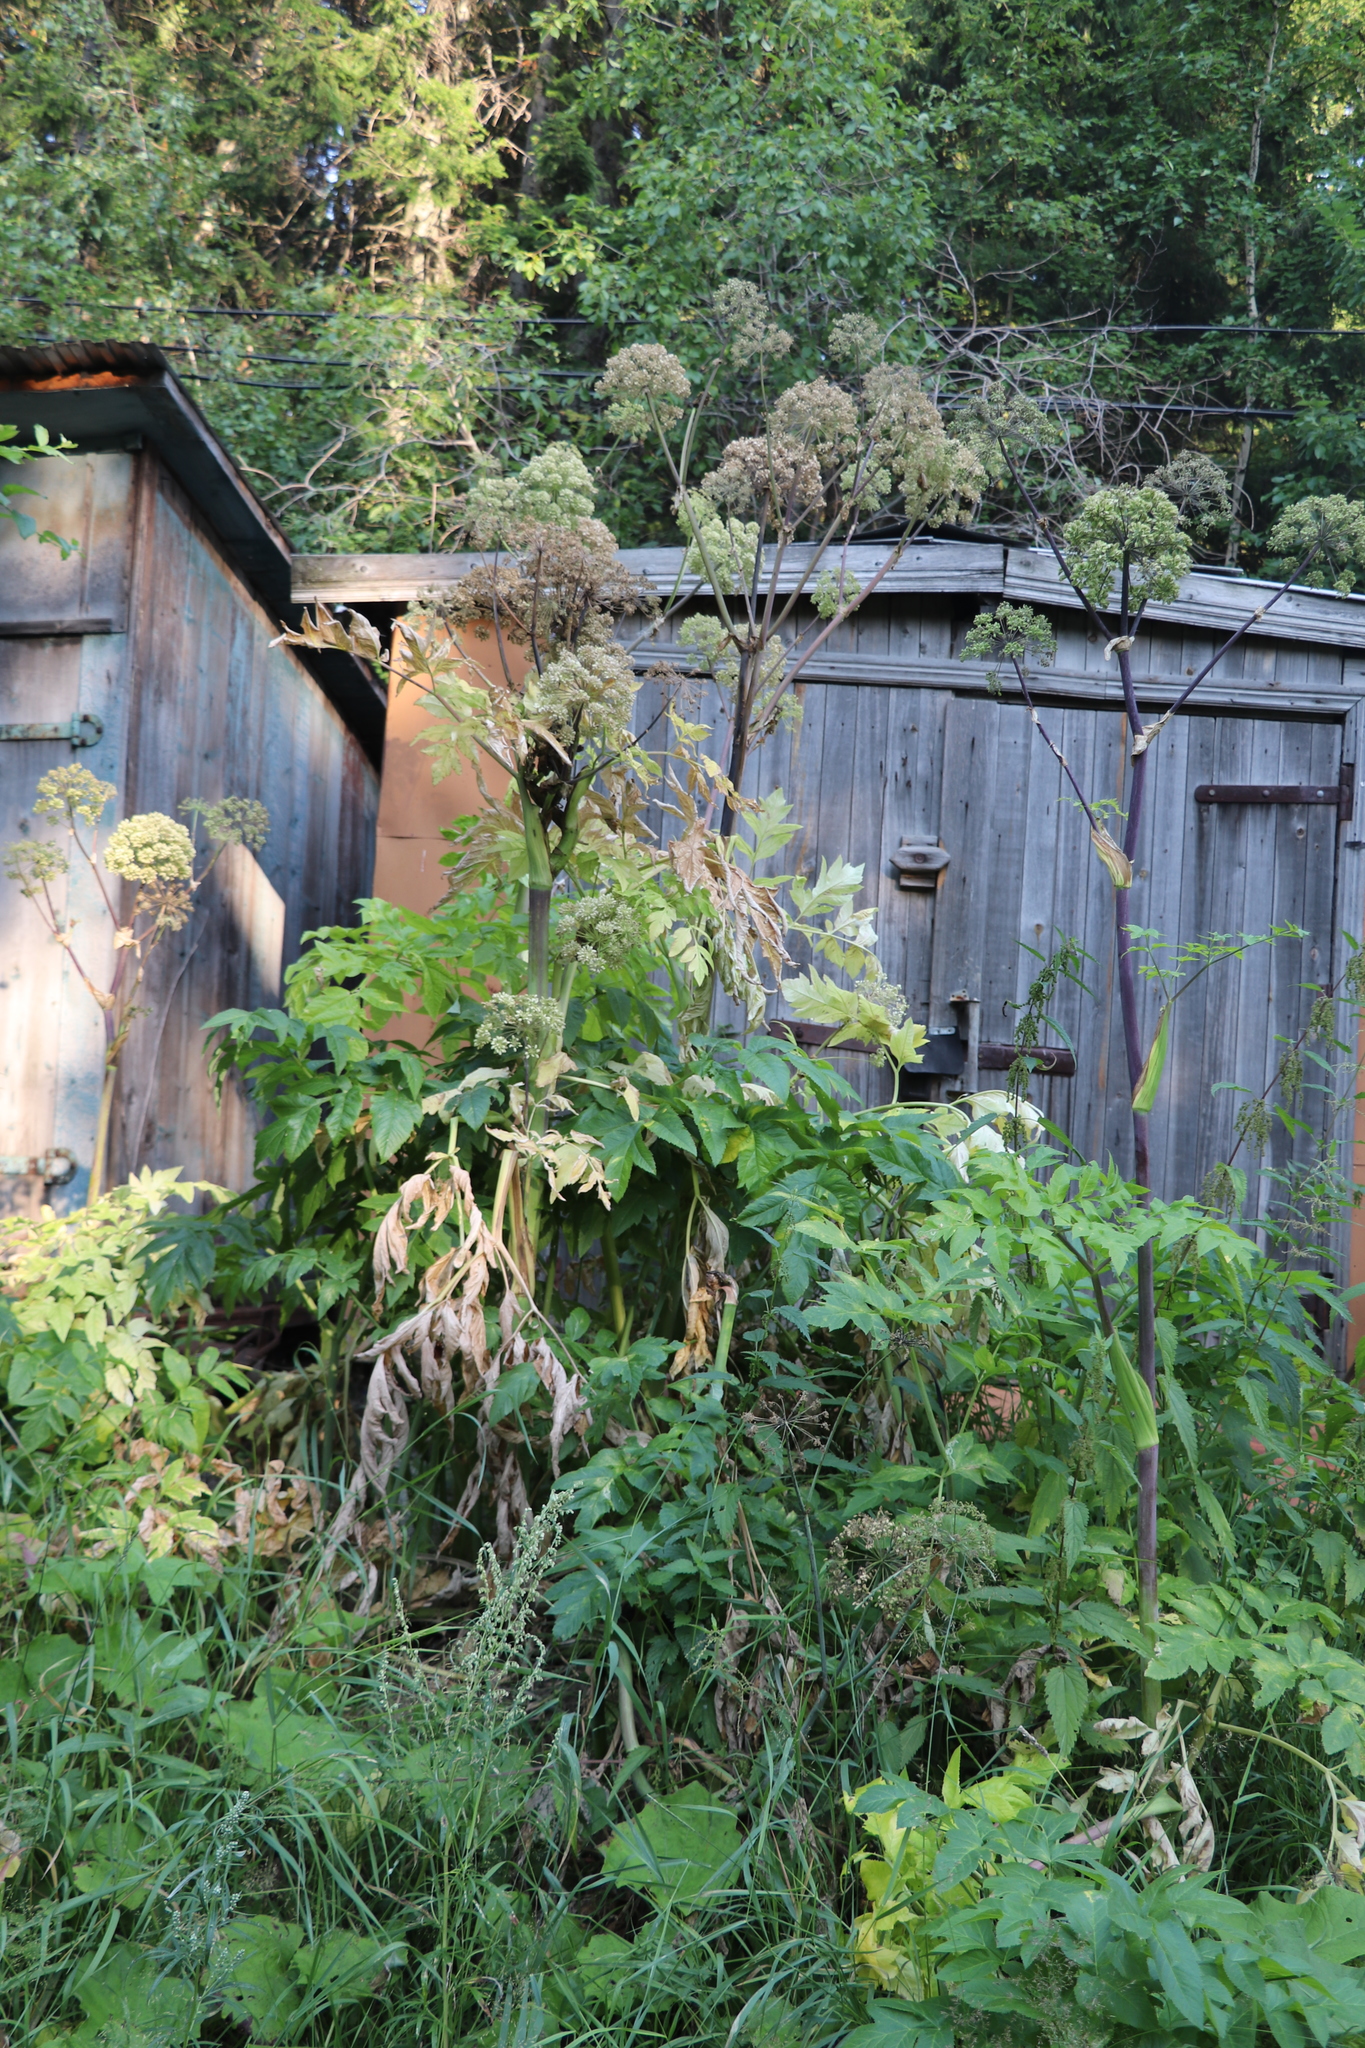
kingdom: Plantae
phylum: Tracheophyta
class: Magnoliopsida
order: Apiales
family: Apiaceae
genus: Angelica
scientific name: Angelica decurrens
